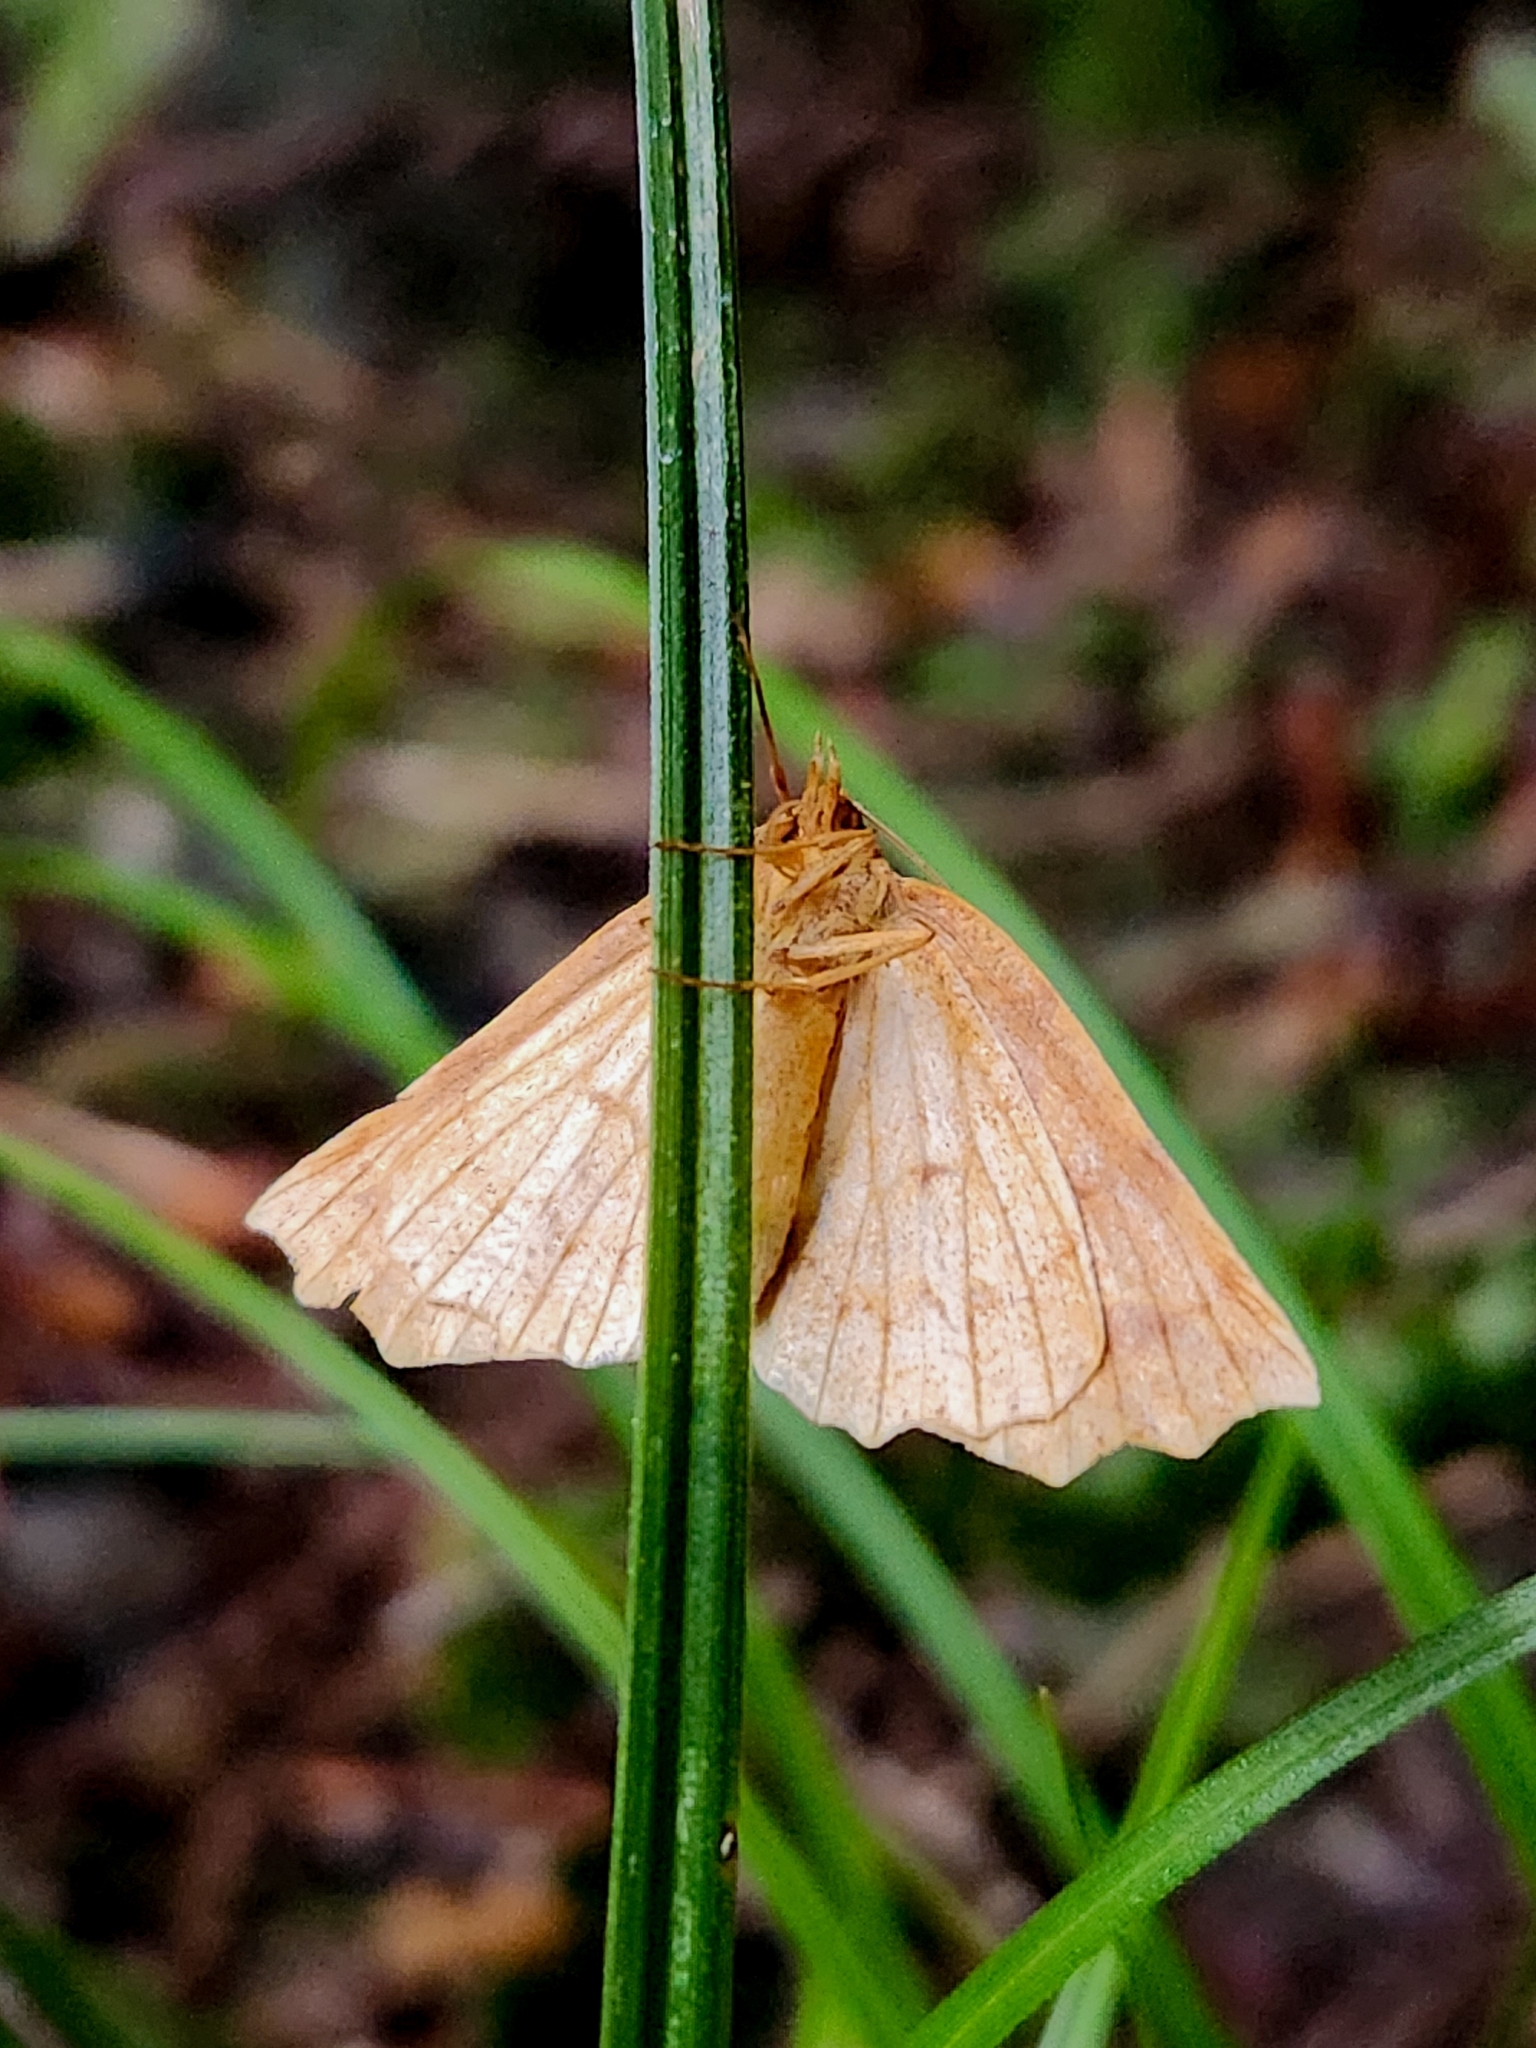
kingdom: Animalia
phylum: Arthropoda
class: Insecta
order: Lepidoptera
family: Geometridae
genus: Ischalis
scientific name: Ischalis variabilis
